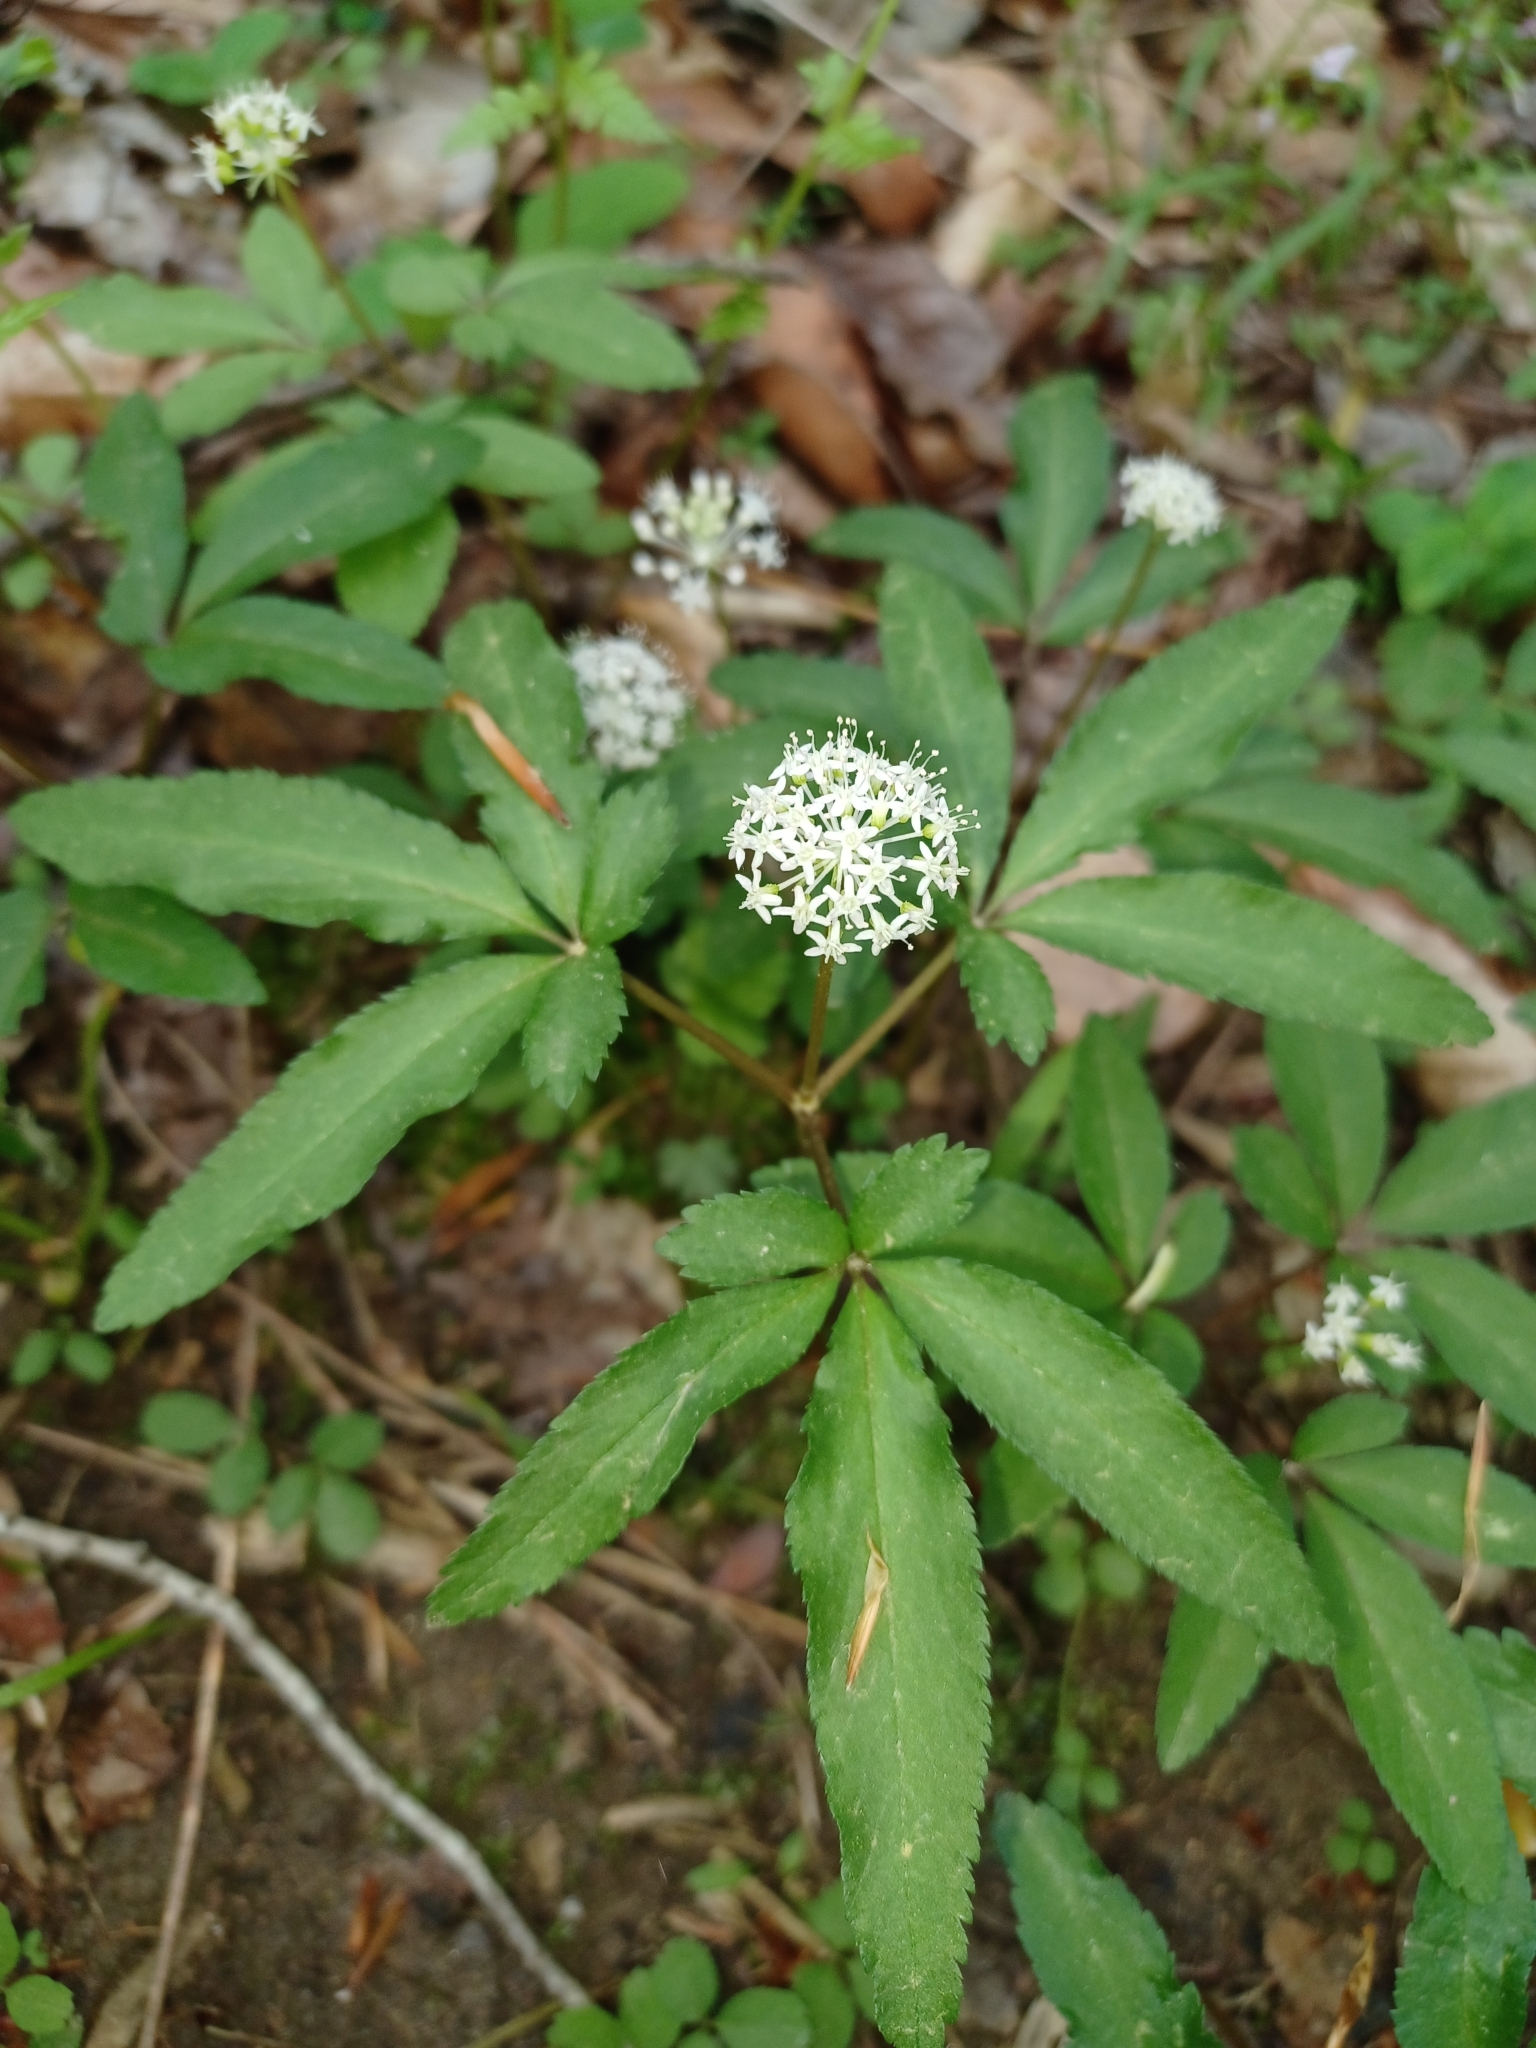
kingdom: Plantae
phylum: Tracheophyta
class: Magnoliopsida
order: Apiales
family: Araliaceae
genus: Panax
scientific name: Panax trifolius
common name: Dwarf ginseng
